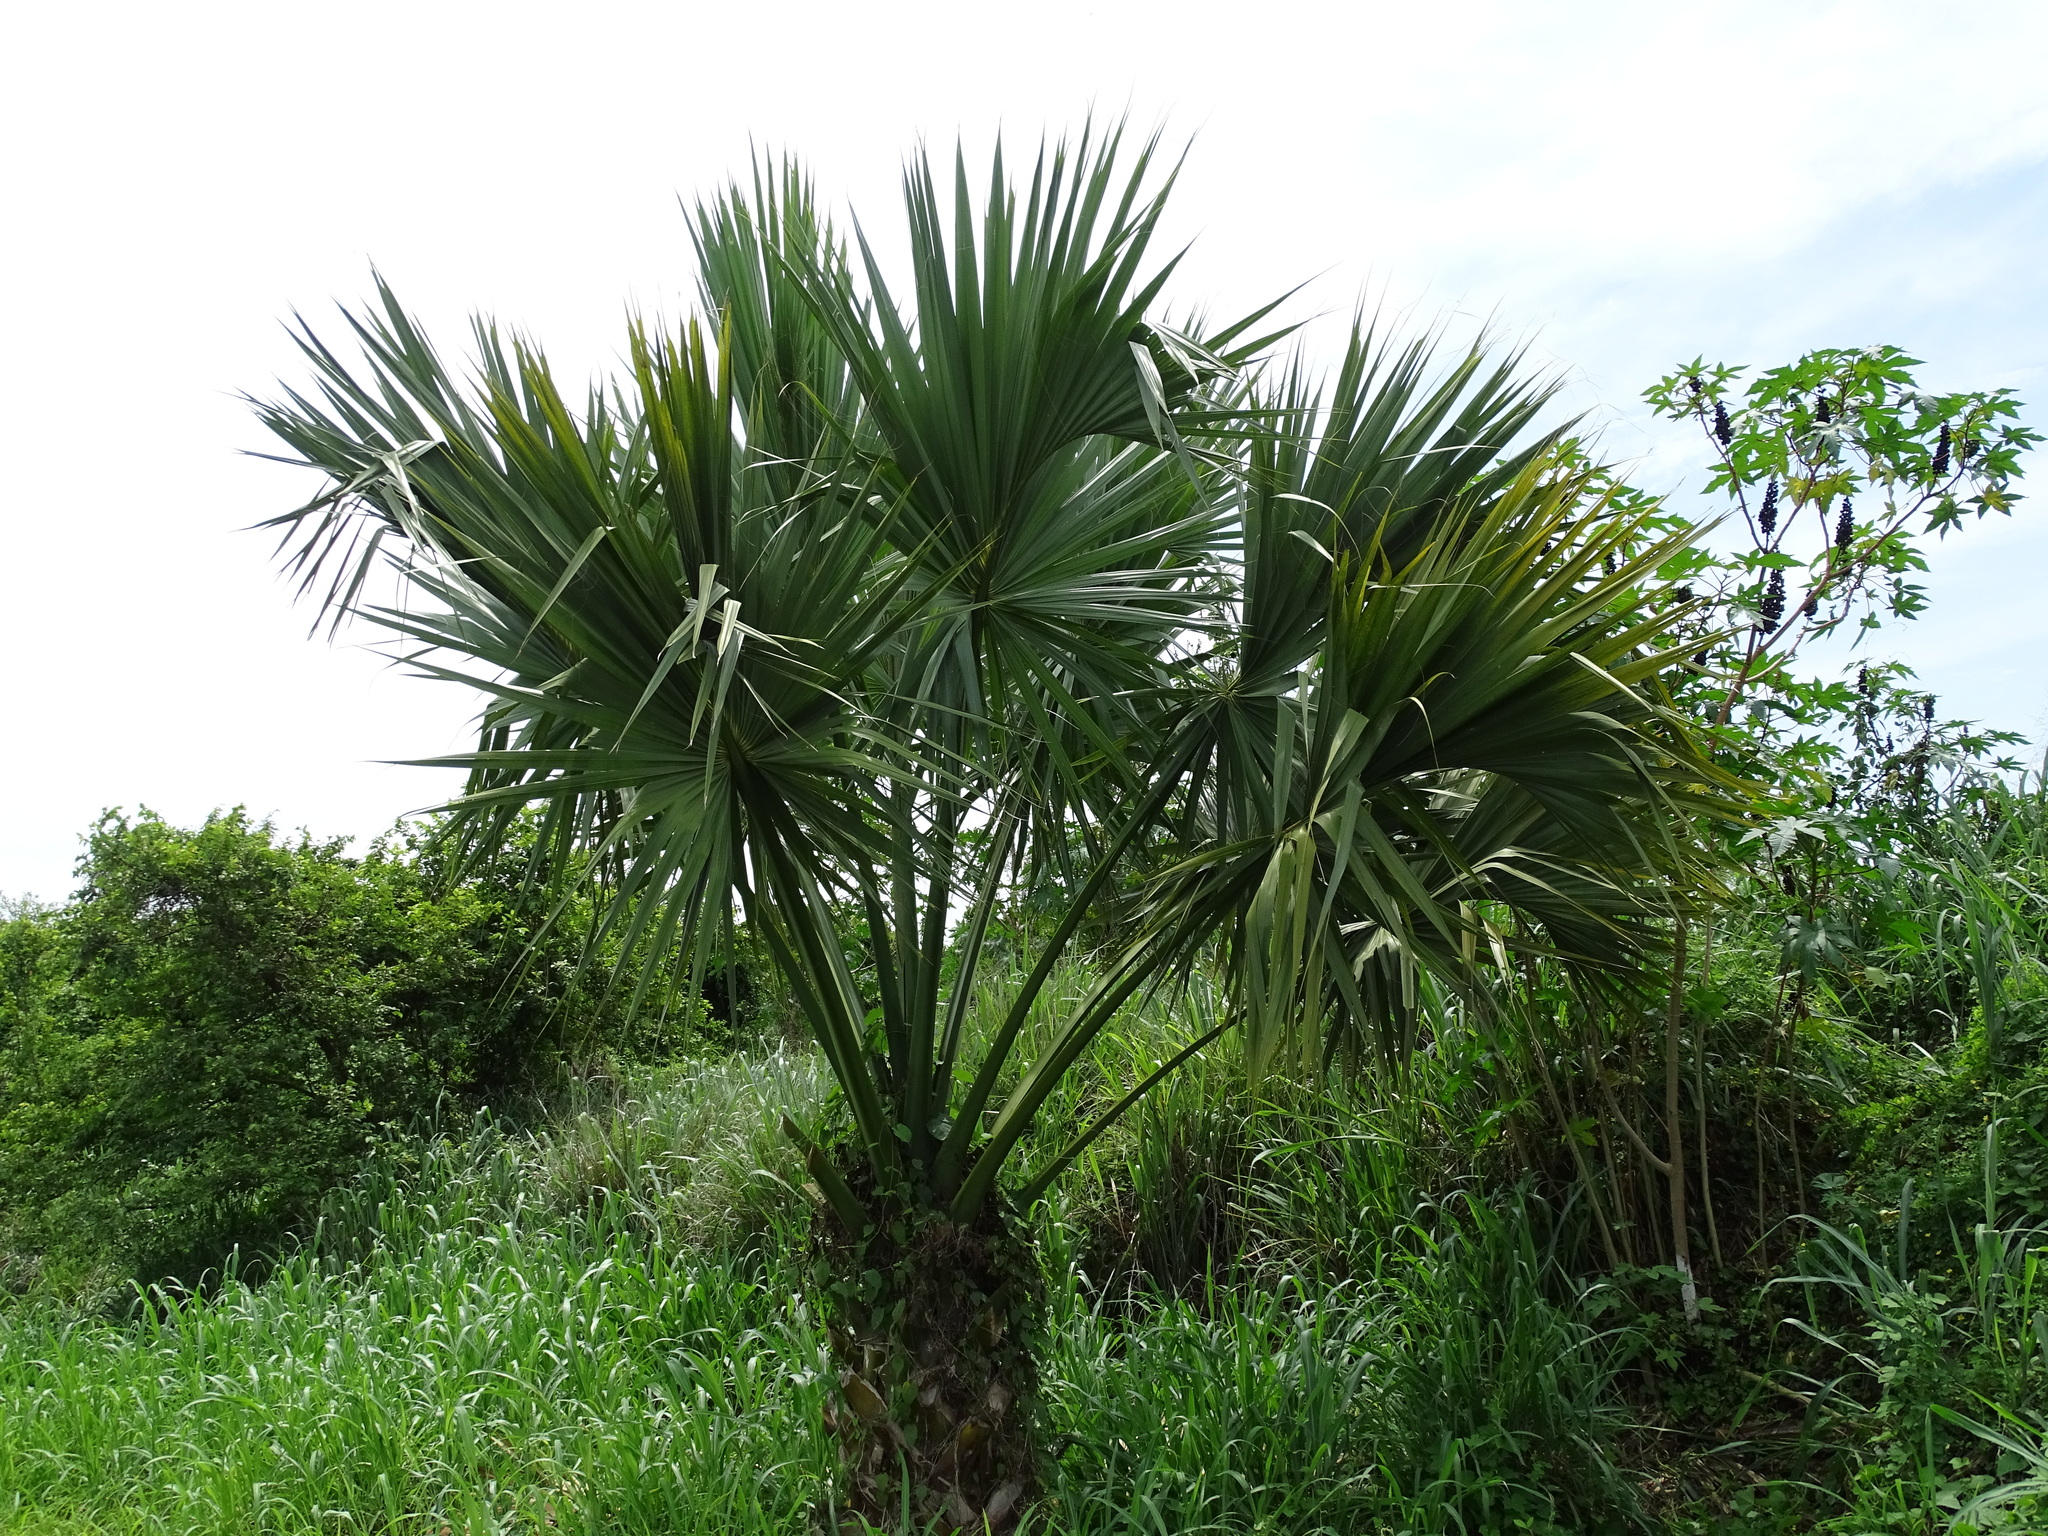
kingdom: Plantae
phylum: Tracheophyta
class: Liliopsida
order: Arecales
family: Arecaceae
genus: Sabal
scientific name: Sabal mexicana
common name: Texas palmetto
